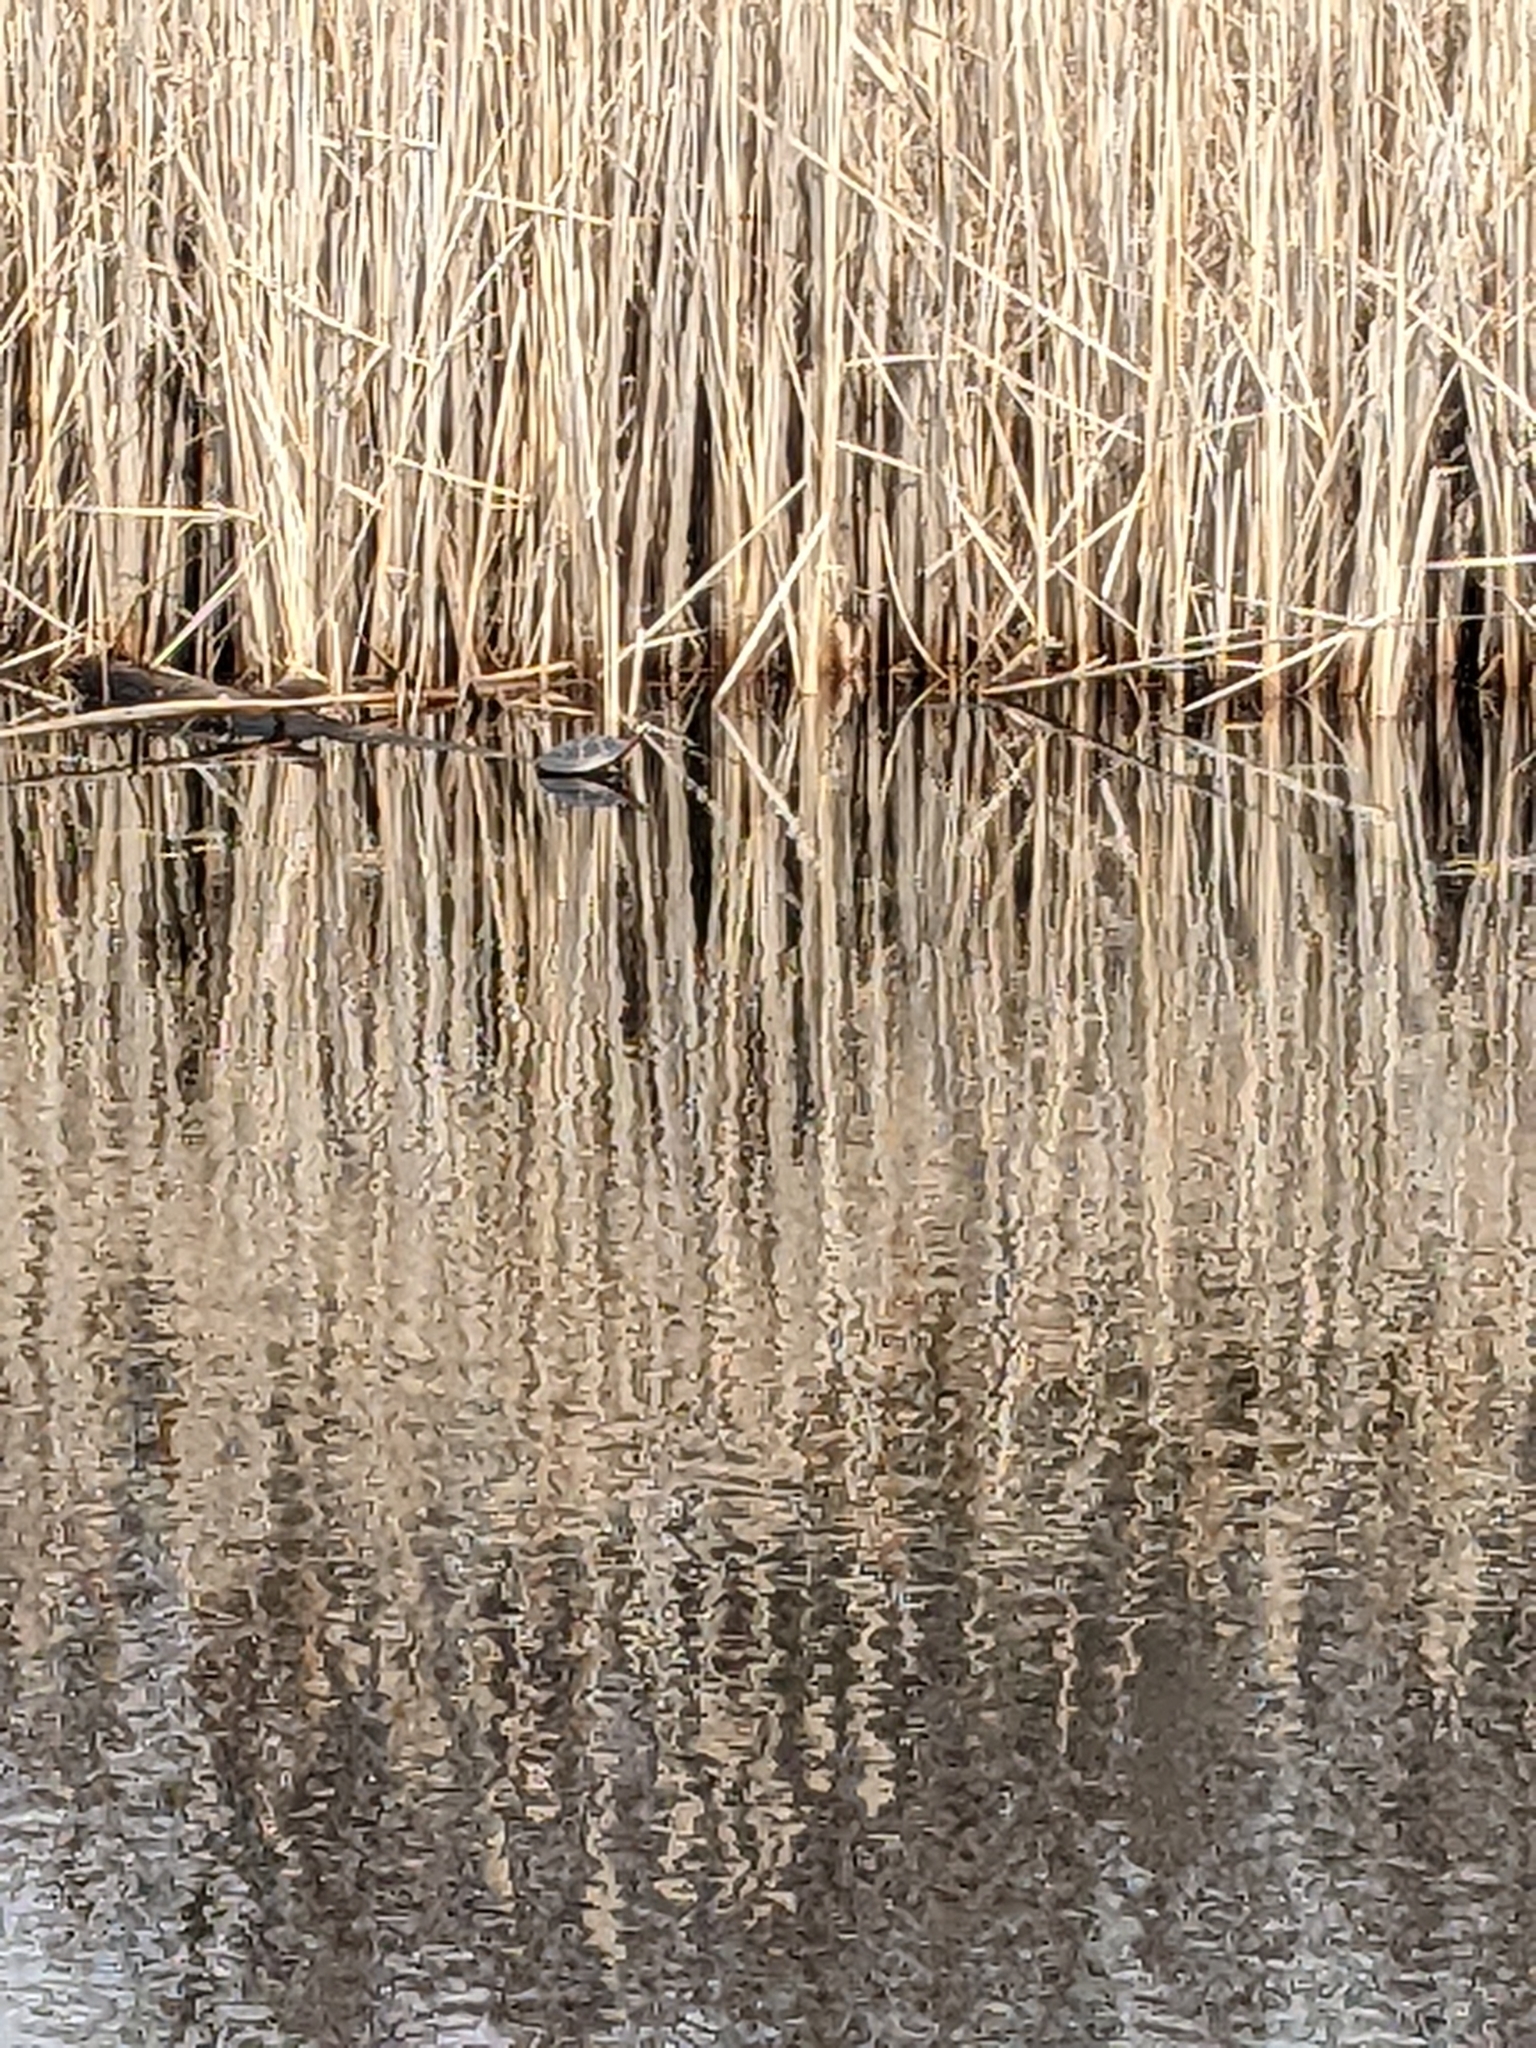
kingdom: Animalia
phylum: Chordata
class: Testudines
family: Emydidae
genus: Chrysemys
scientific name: Chrysemys picta
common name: Painted turtle
